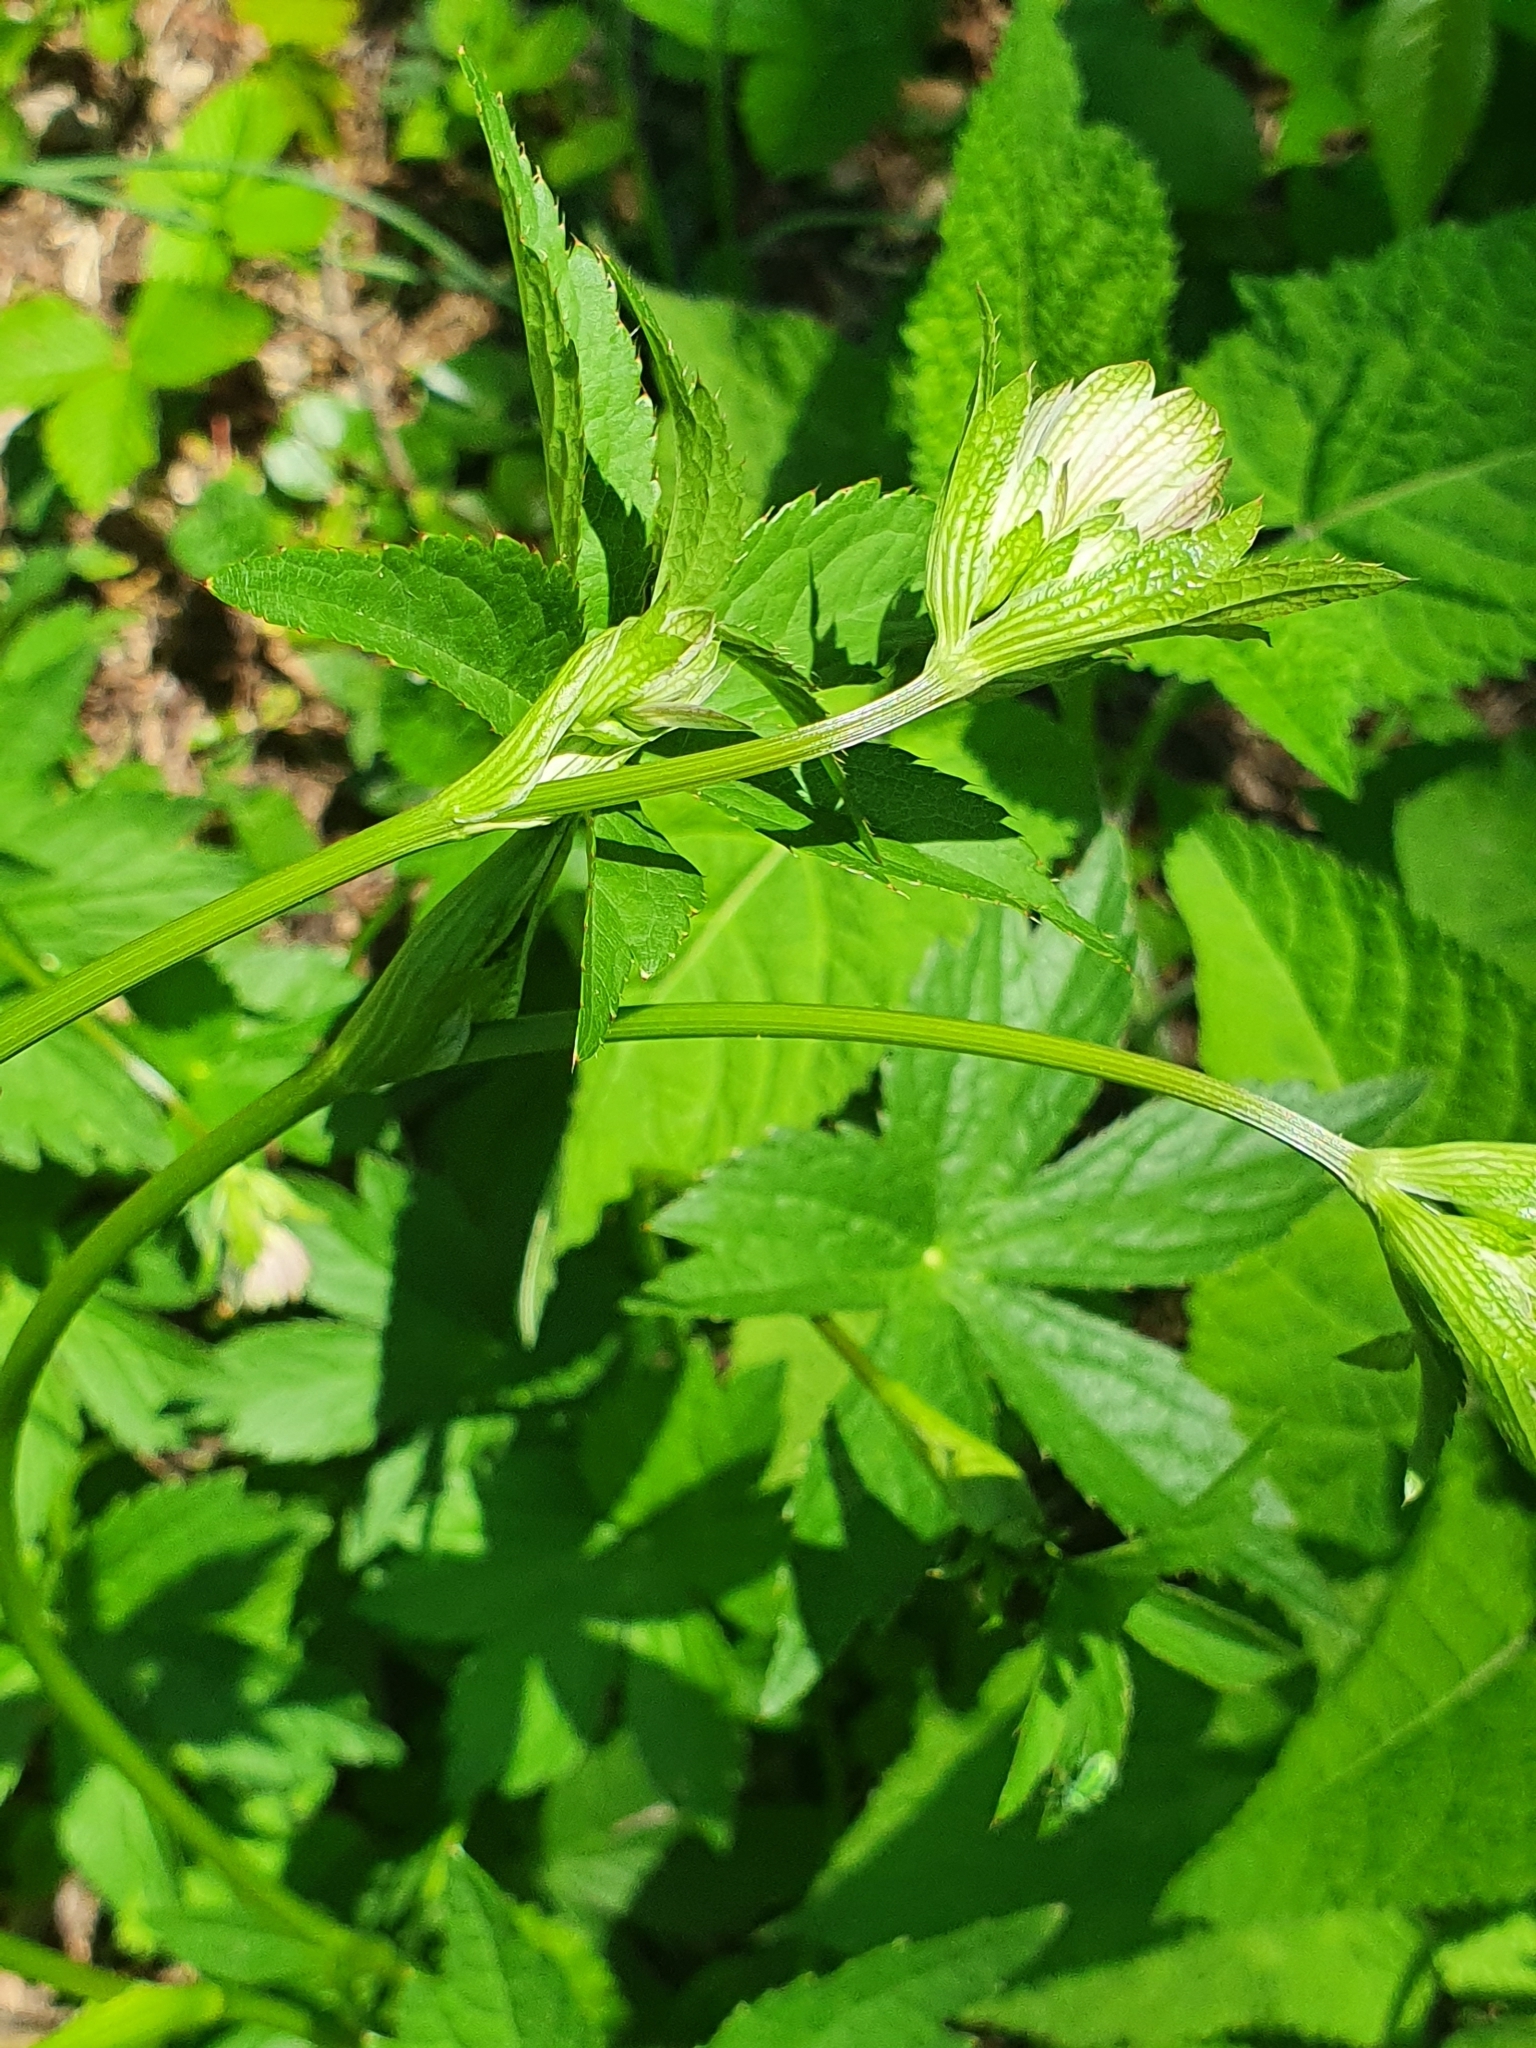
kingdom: Plantae
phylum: Tracheophyta
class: Magnoliopsida
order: Apiales
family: Apiaceae
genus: Astrantia
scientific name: Astrantia major
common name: Greater masterwort
